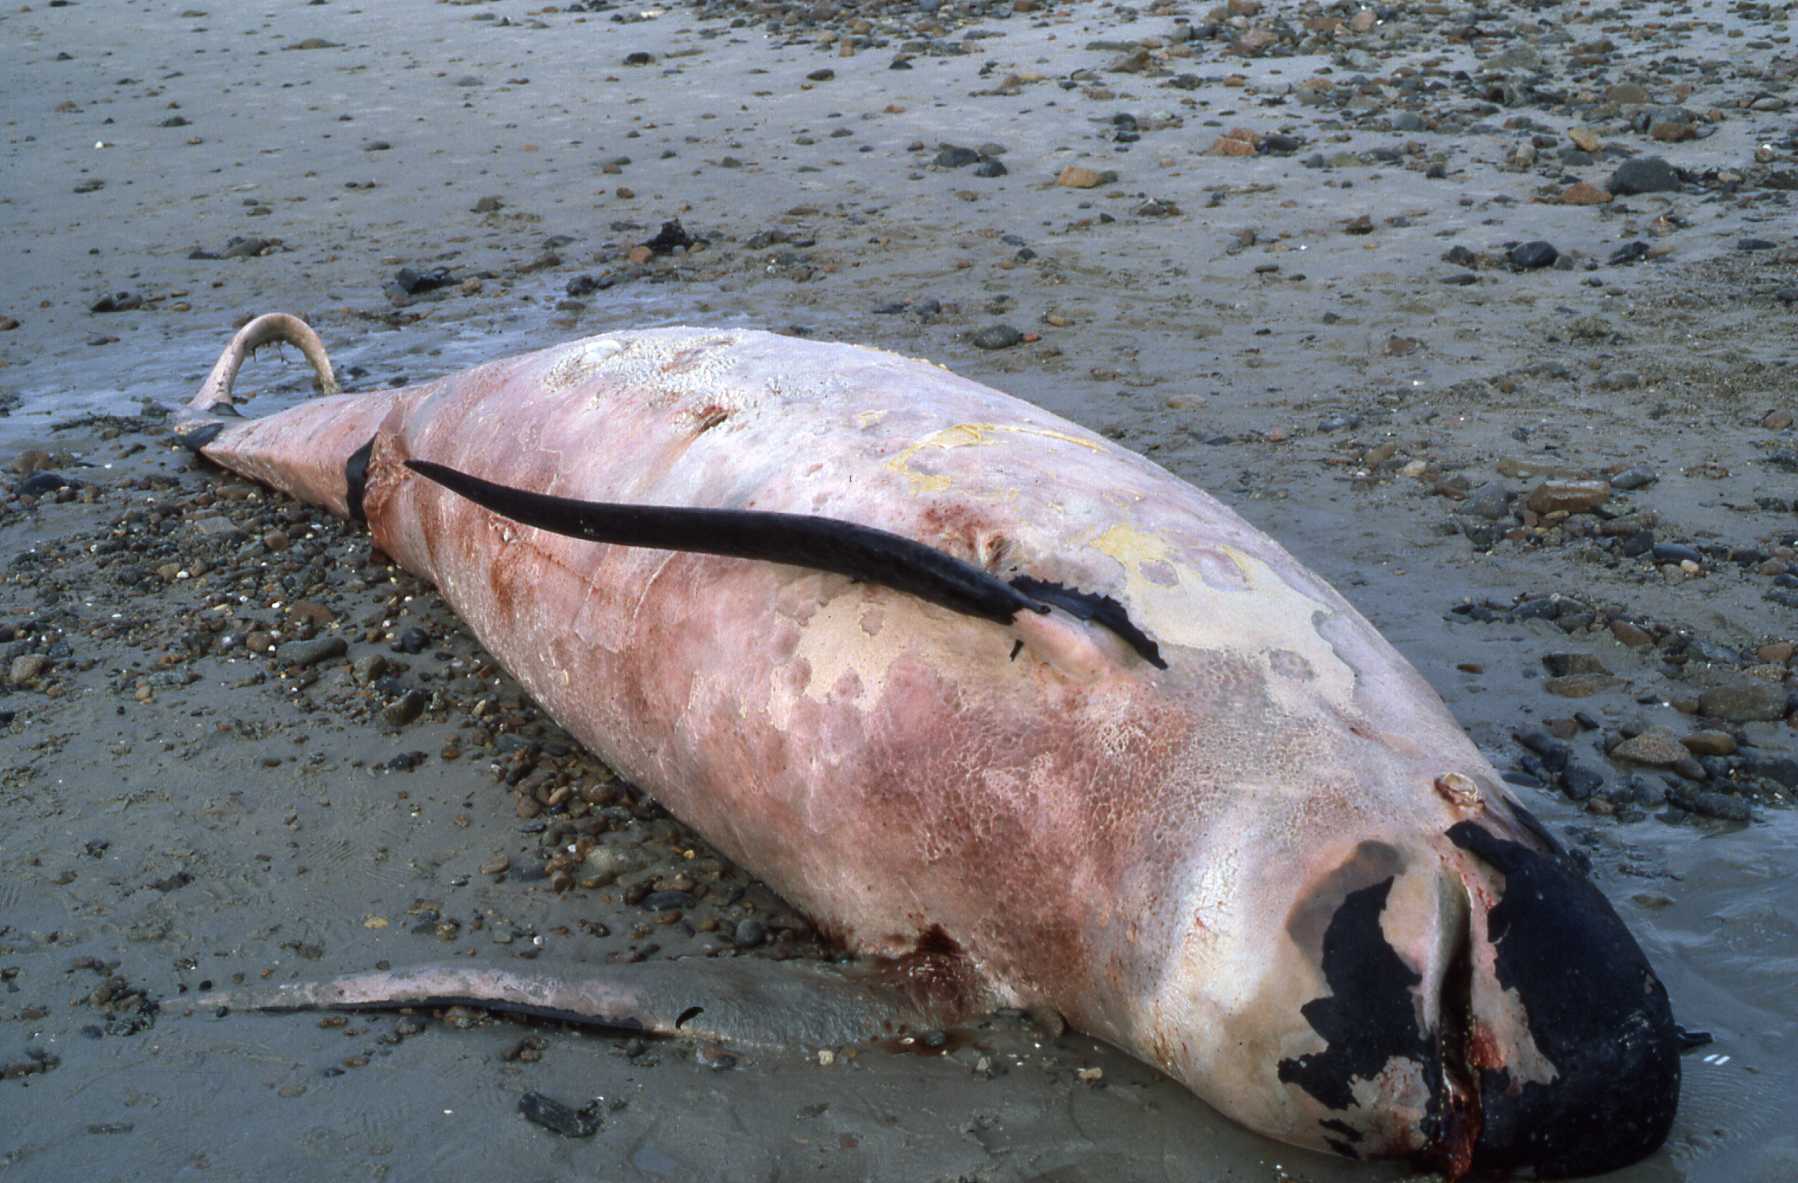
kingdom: Animalia
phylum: Chordata
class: Mammalia
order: Cetacea
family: Delphinidae
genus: Globicephala
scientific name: Globicephala melas
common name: Long-finned pilot whale
